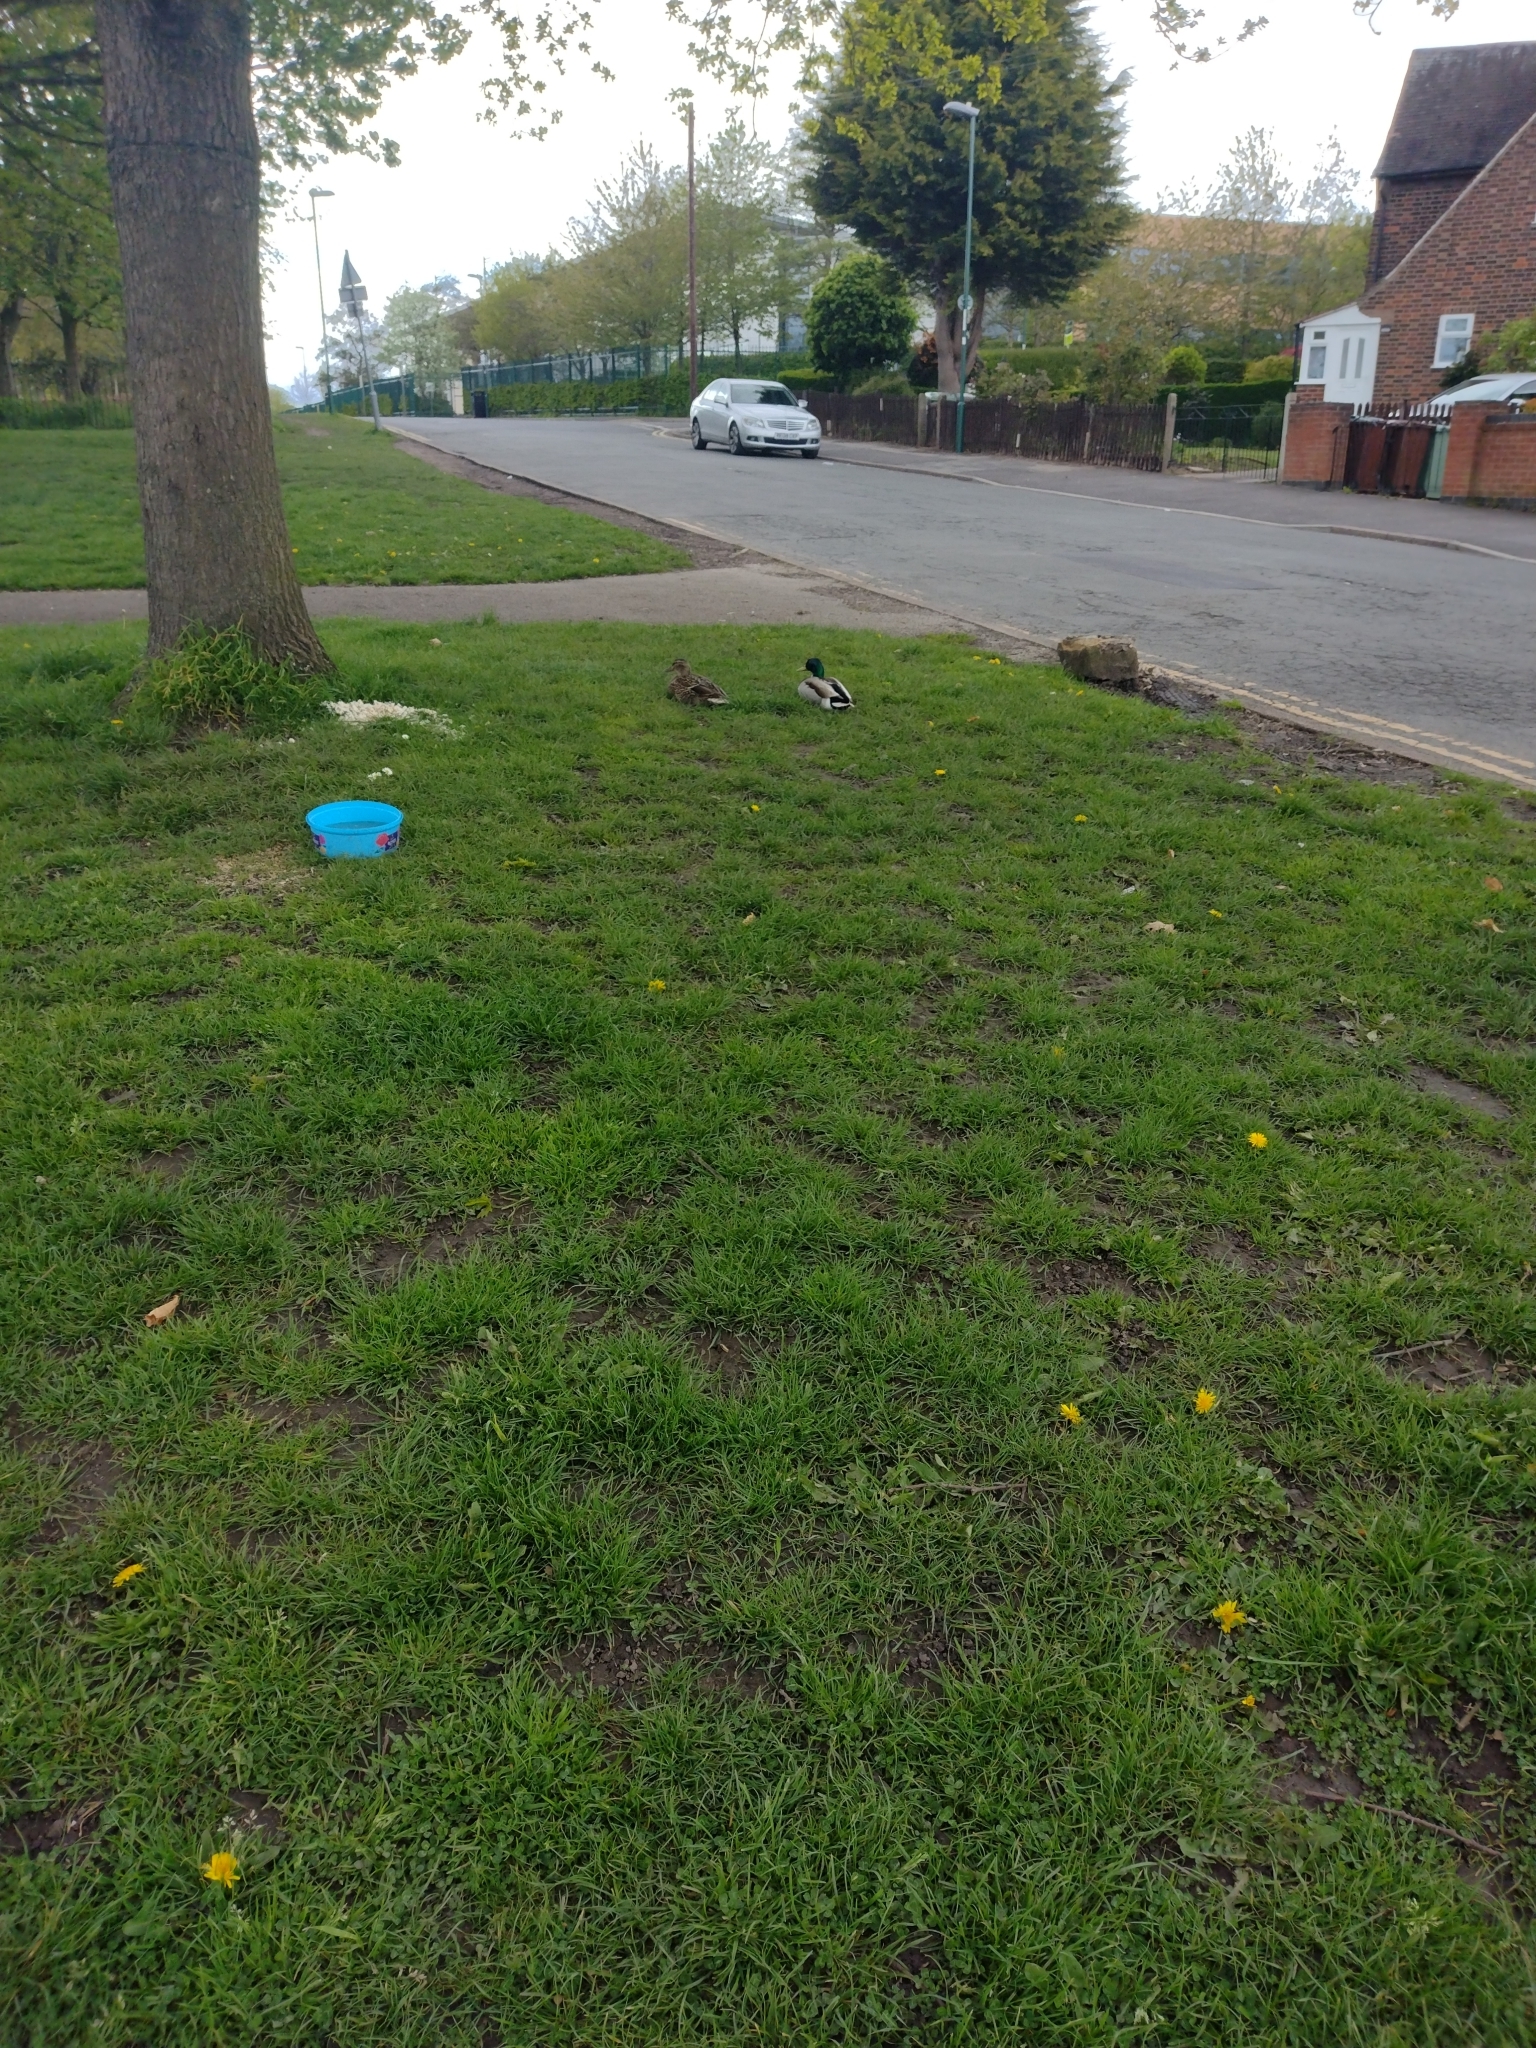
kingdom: Animalia
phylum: Chordata
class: Aves
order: Anseriformes
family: Anatidae
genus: Anas
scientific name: Anas platyrhynchos
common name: Mallard
